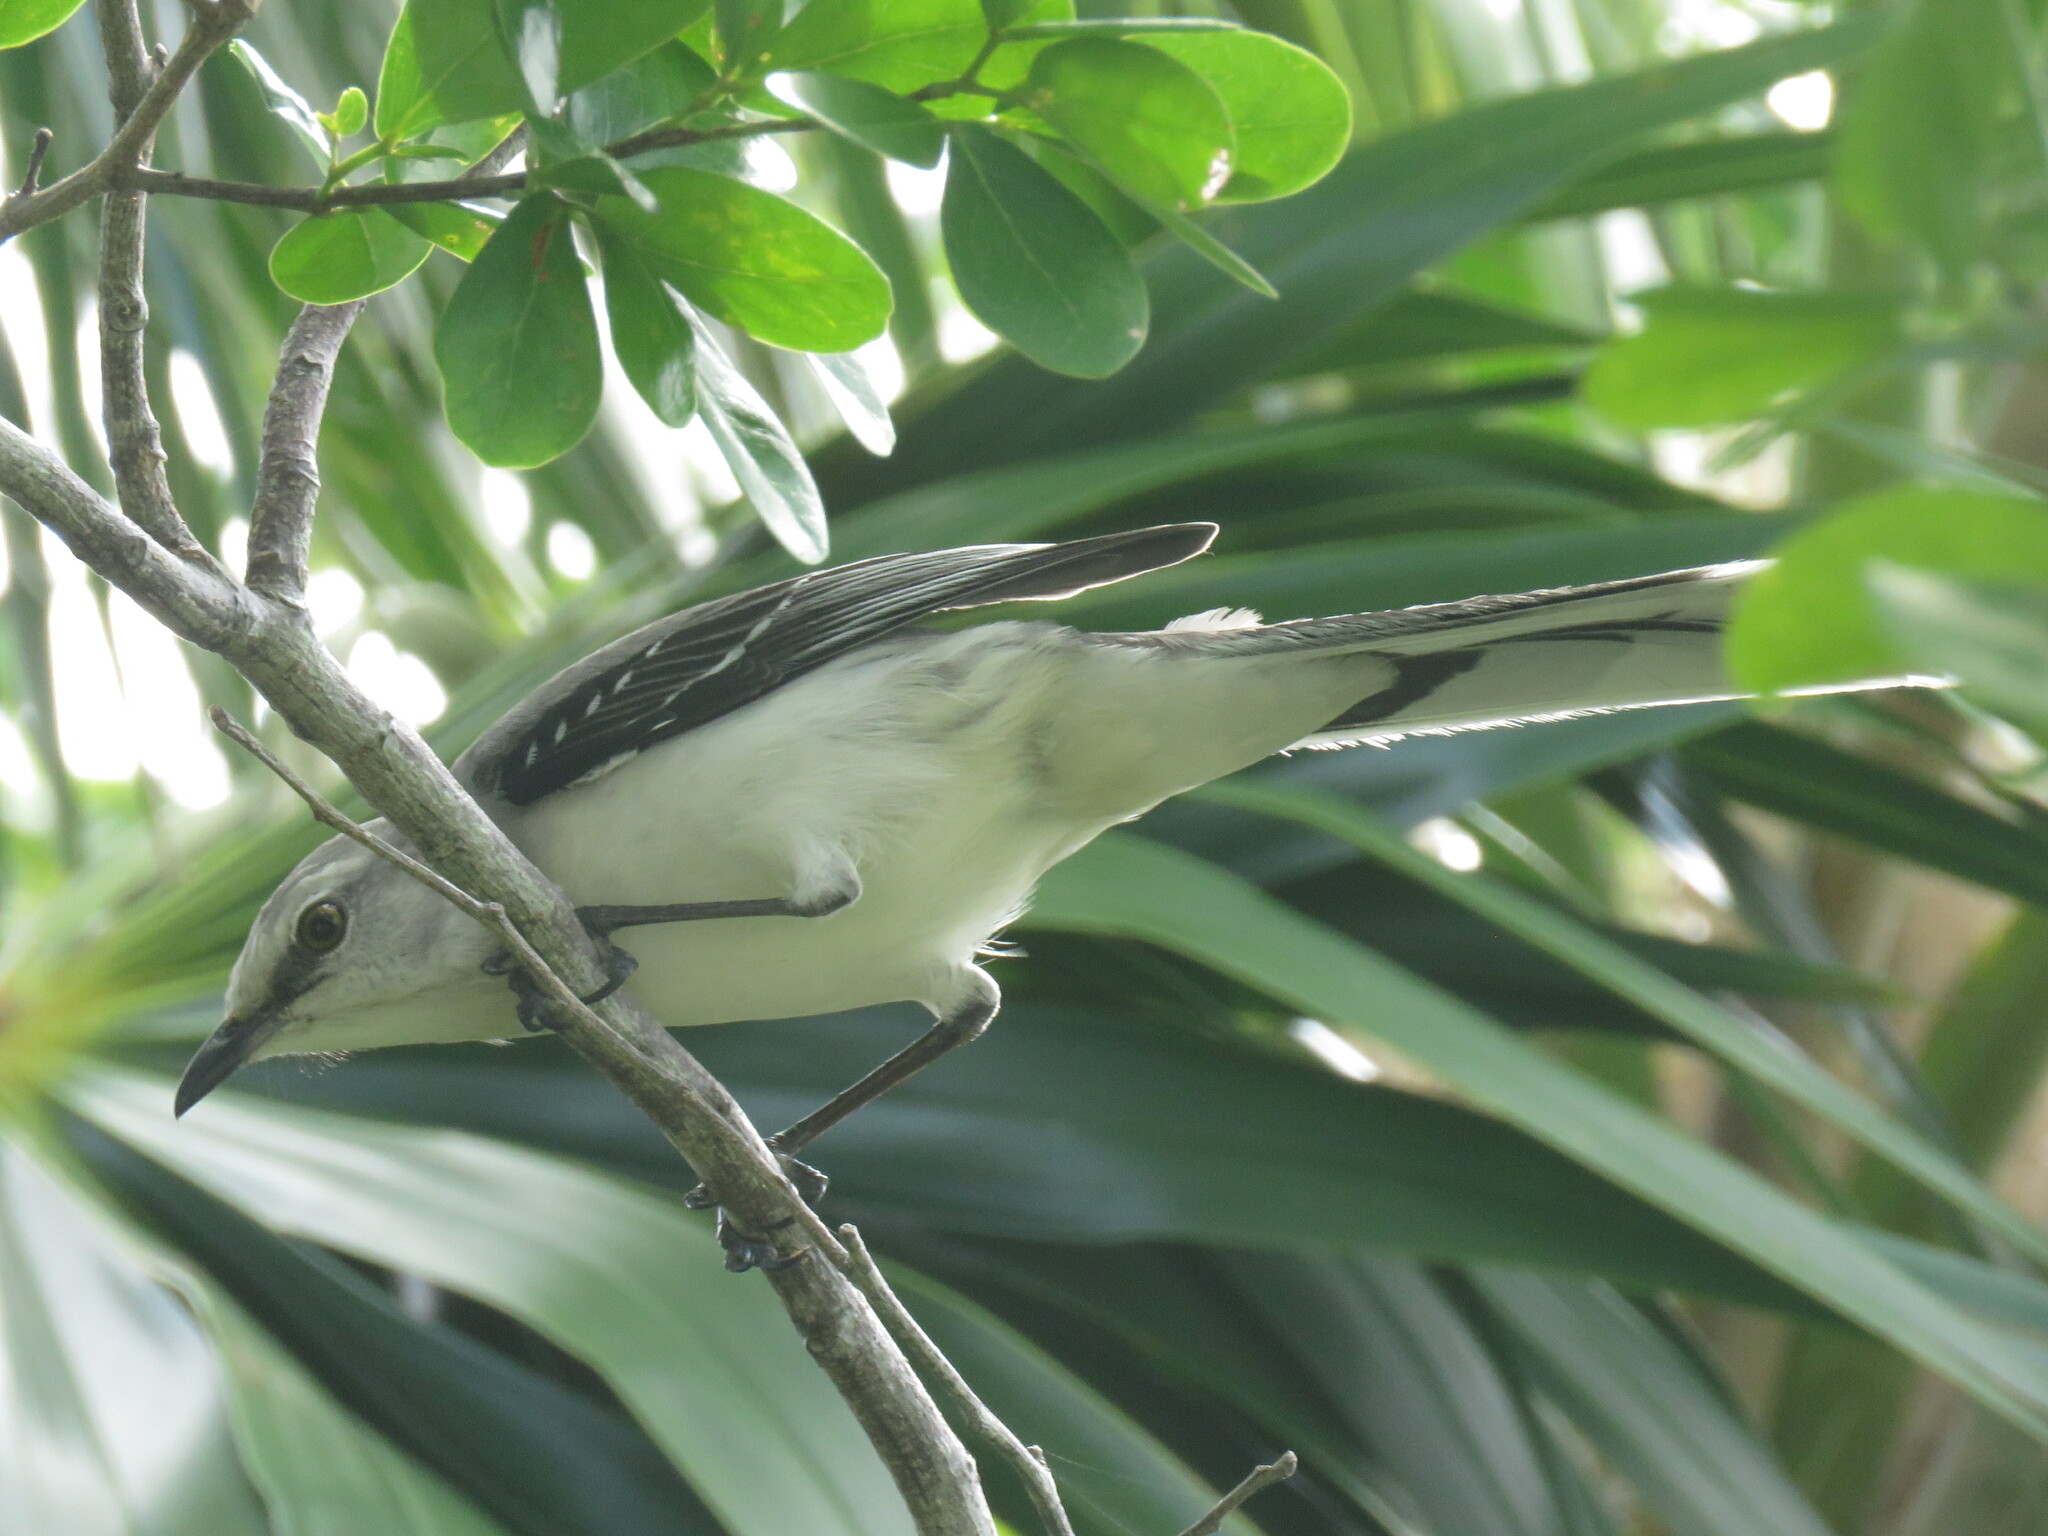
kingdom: Animalia
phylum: Chordata
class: Aves
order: Passeriformes
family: Mimidae
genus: Mimus
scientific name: Mimus gilvus
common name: Tropical mockingbird
